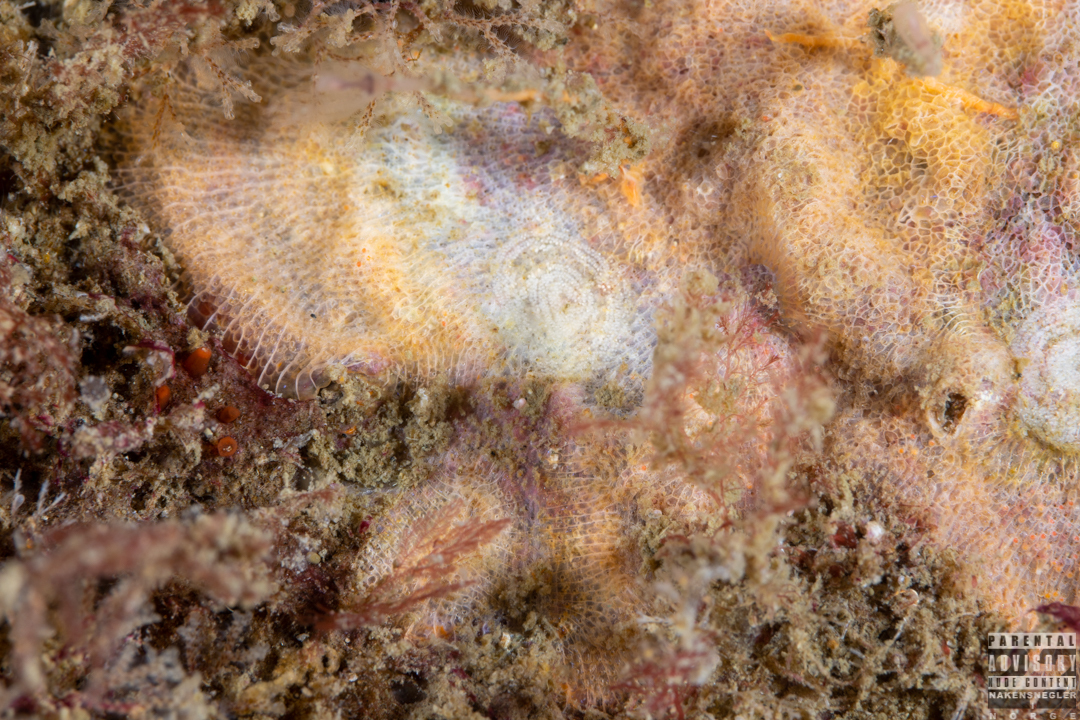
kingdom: Animalia
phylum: Mollusca
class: Gastropoda
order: Nudibranchia
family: Onchidorididae
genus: Idaliadoris
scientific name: Idaliadoris depressa
